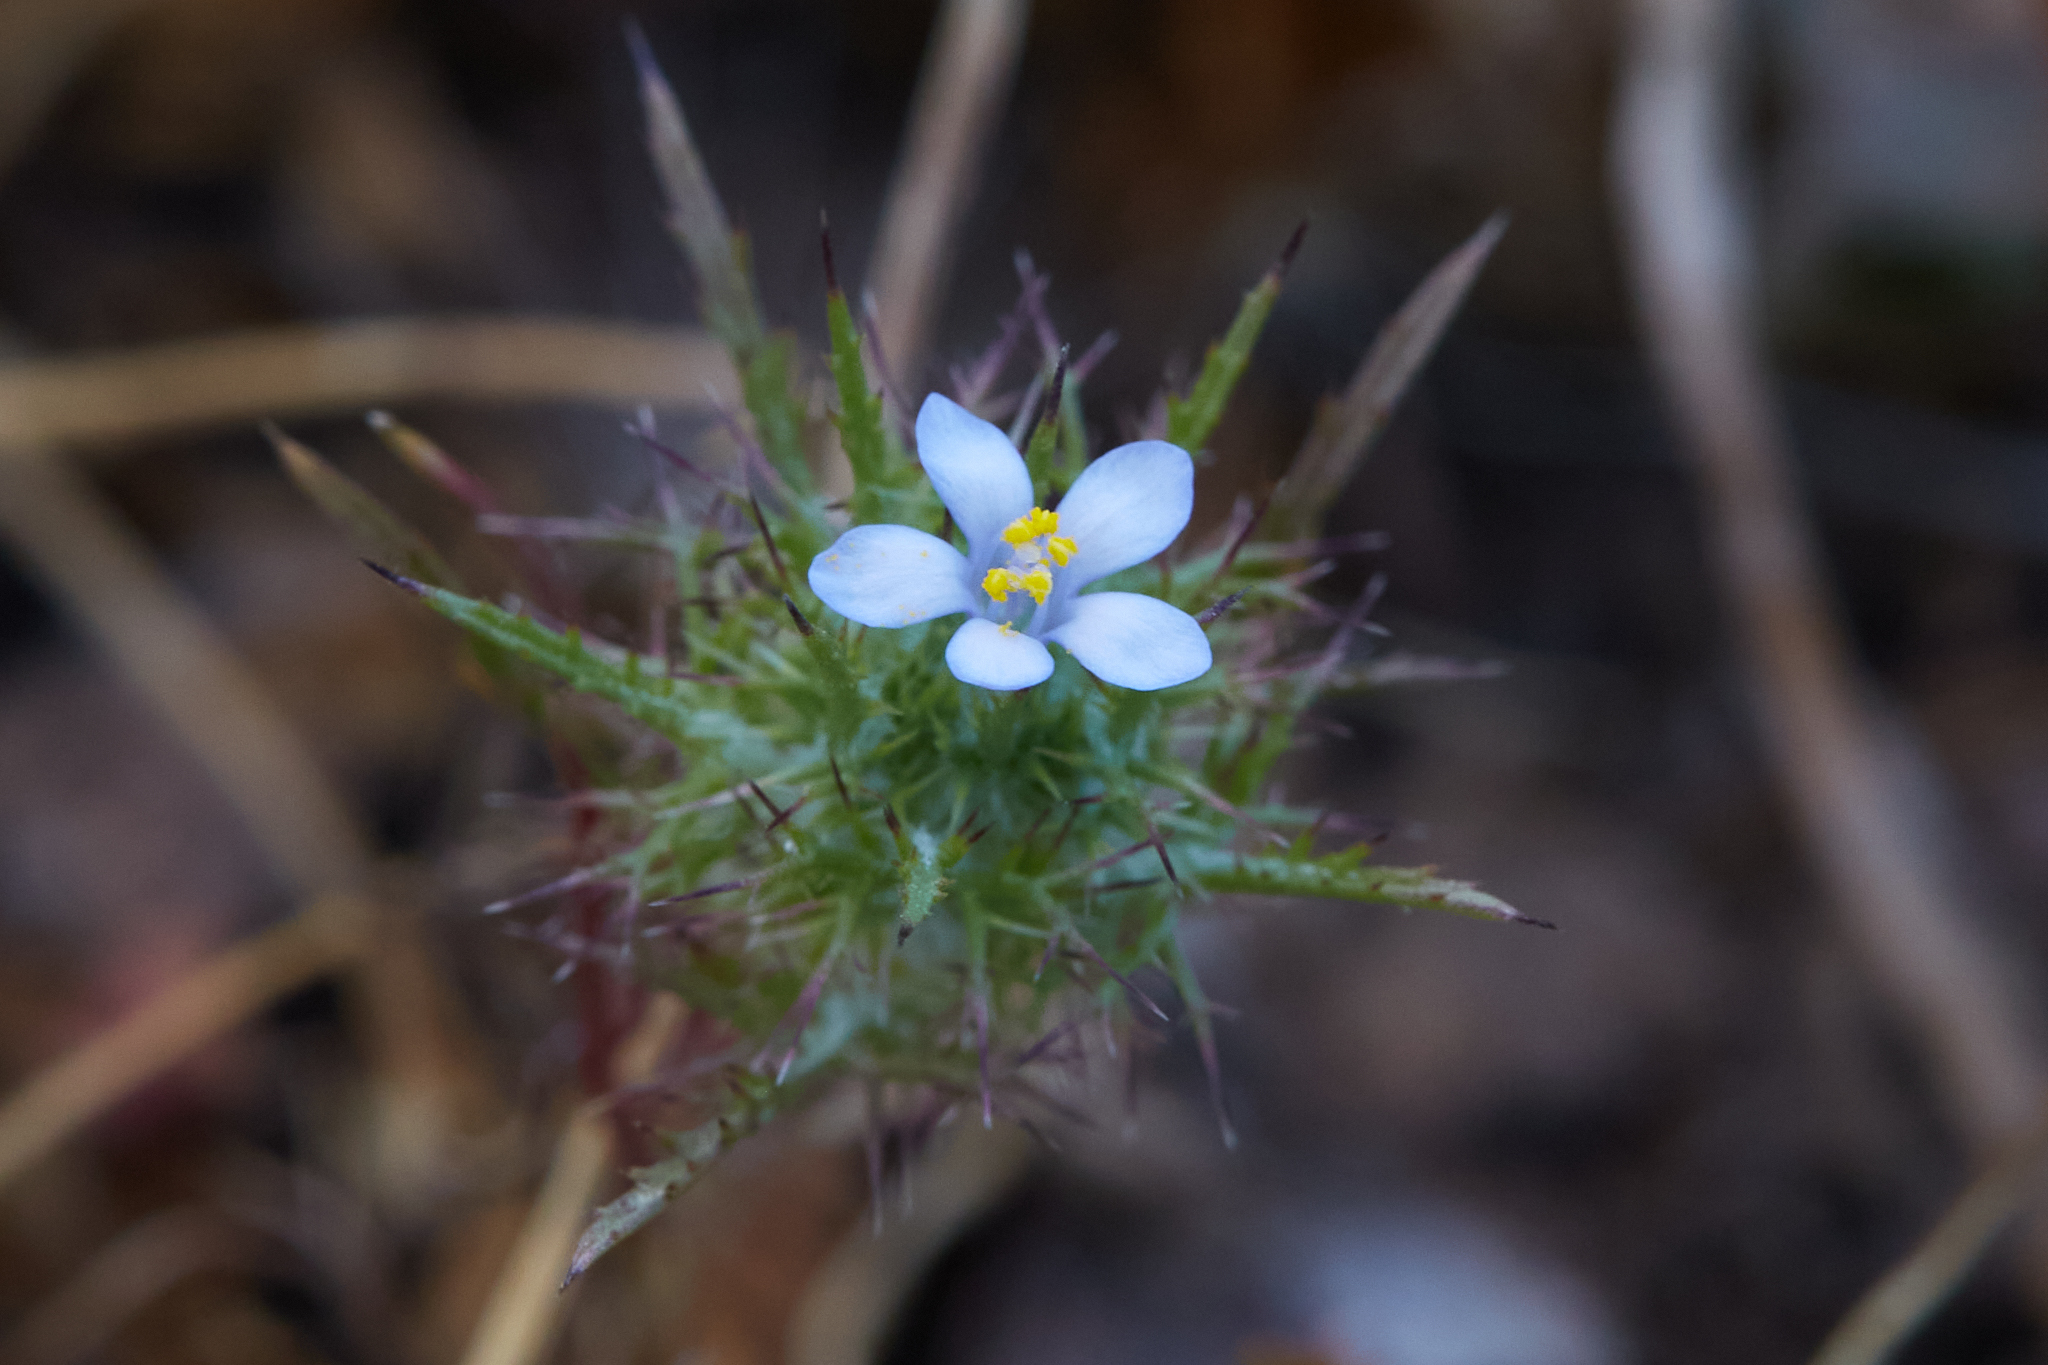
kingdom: Plantae
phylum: Tracheophyta
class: Magnoliopsida
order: Ericales
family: Polemoniaceae
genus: Navarretia
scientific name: Navarretia tagetina
